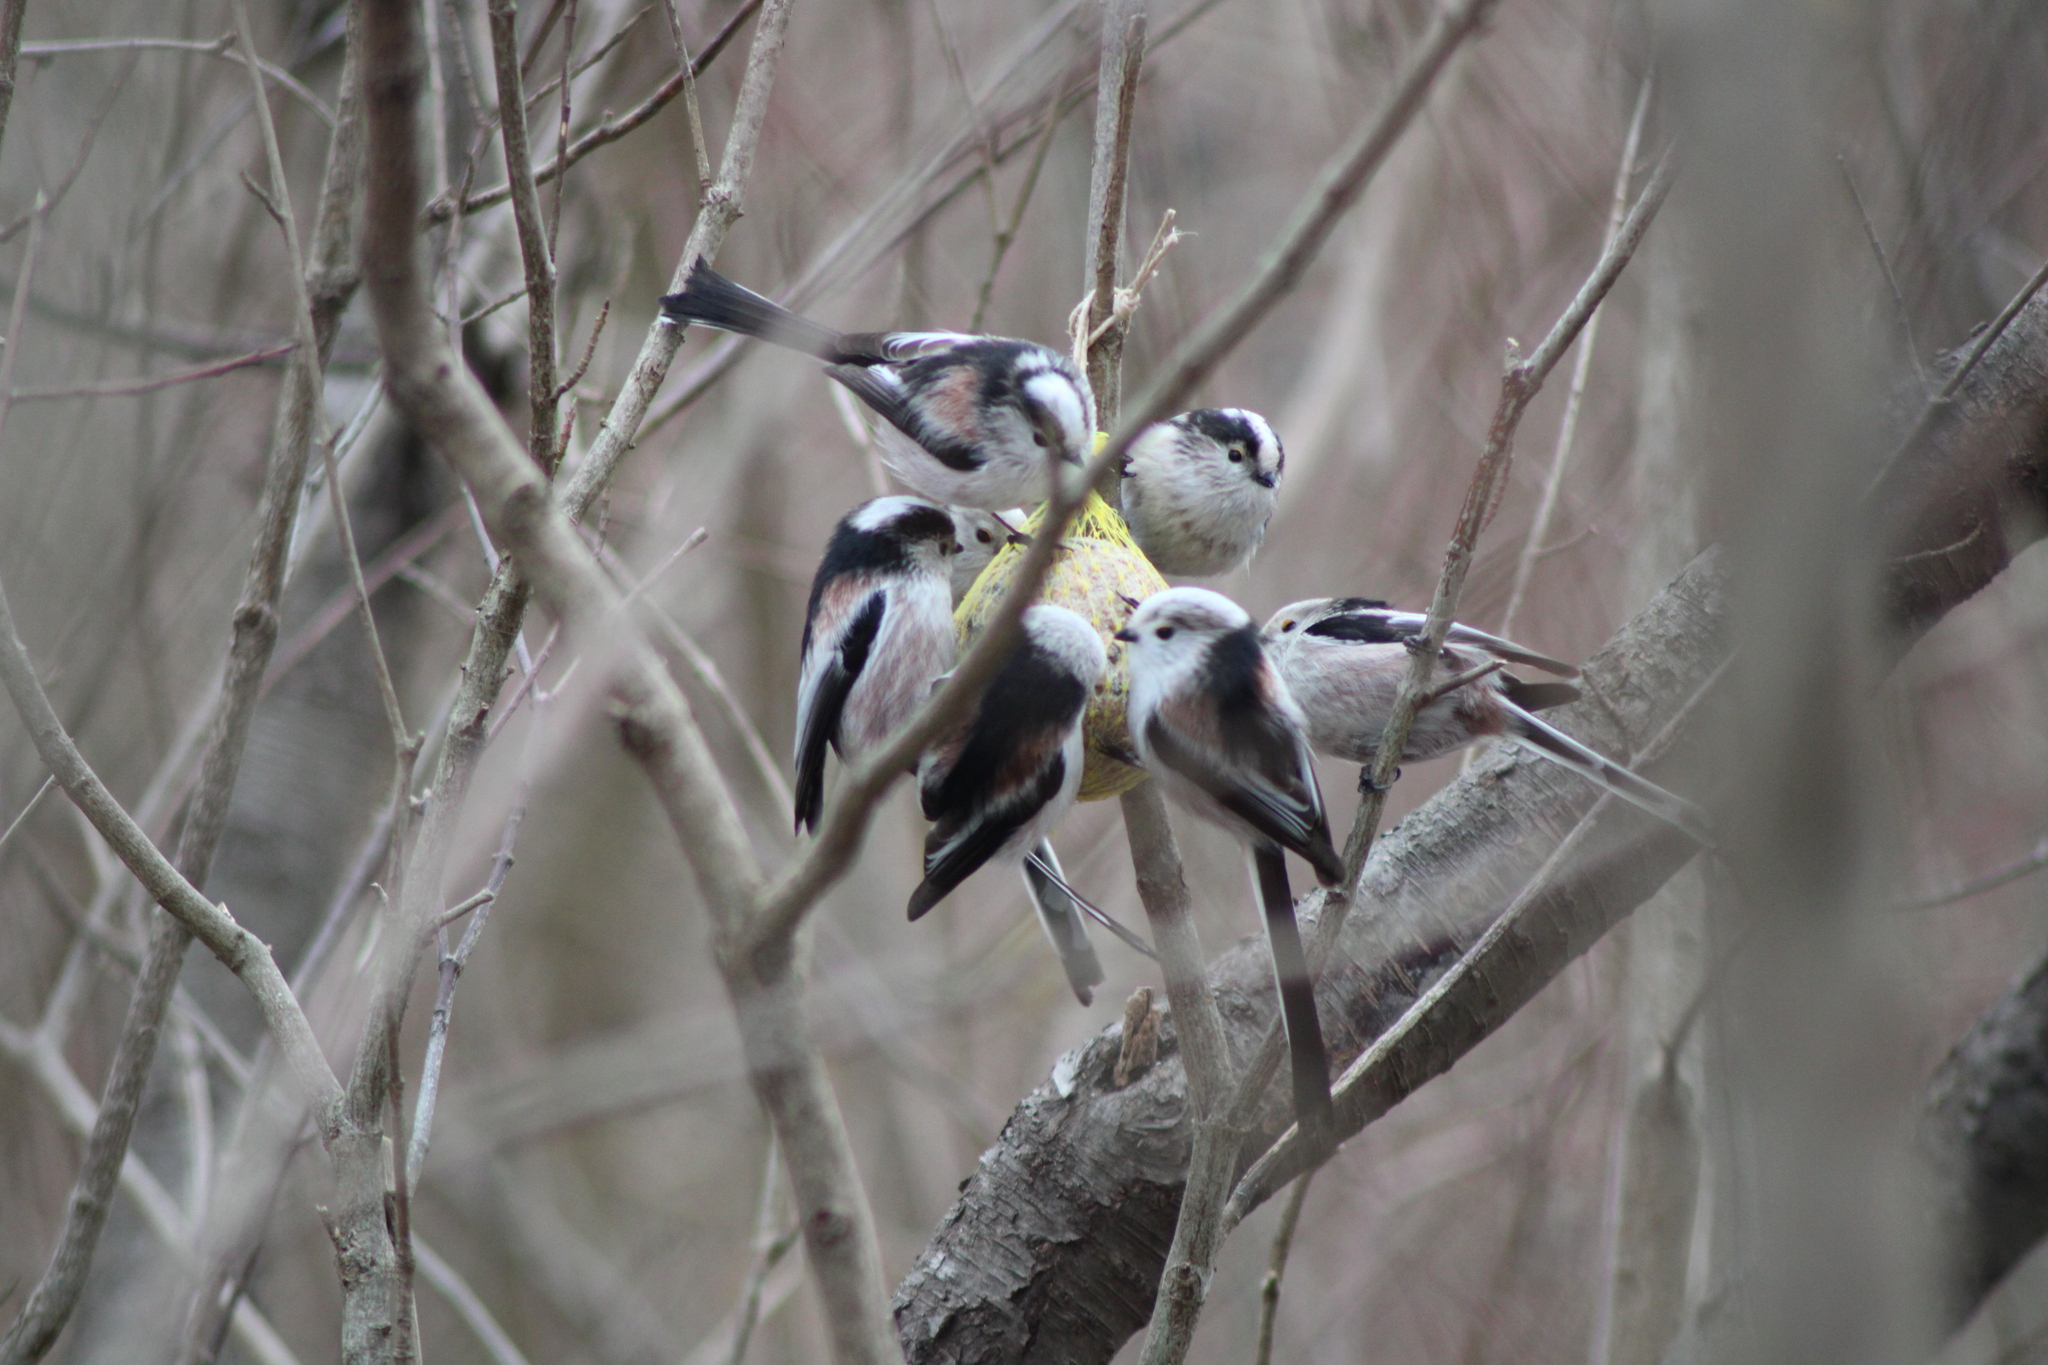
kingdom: Animalia
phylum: Chordata
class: Aves
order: Passeriformes
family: Aegithalidae
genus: Aegithalos
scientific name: Aegithalos caudatus
